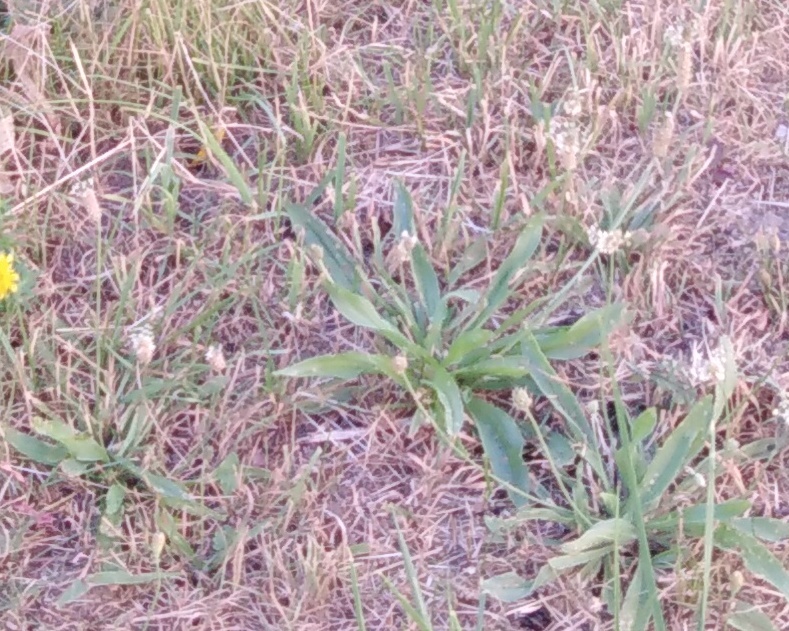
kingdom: Plantae
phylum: Tracheophyta
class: Magnoliopsida
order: Lamiales
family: Plantaginaceae
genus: Plantago
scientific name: Plantago lanceolata
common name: Ribwort plantain
